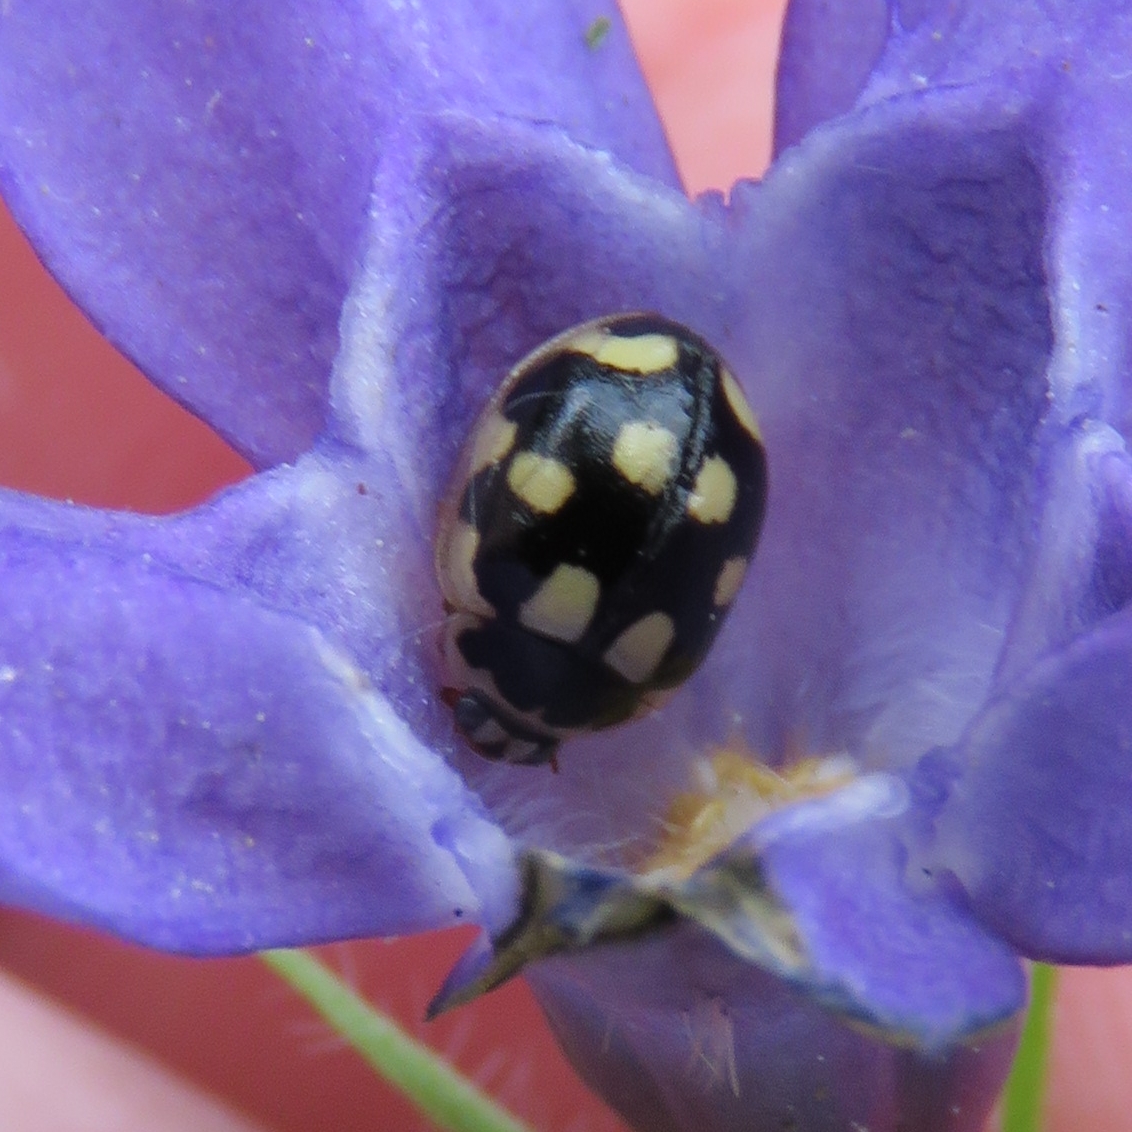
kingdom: Animalia
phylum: Arthropoda
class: Insecta
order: Coleoptera
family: Coccinellidae
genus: Propylaea
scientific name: Propylaea quatuordecimpunctata
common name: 14-spotted ladybird beetle
